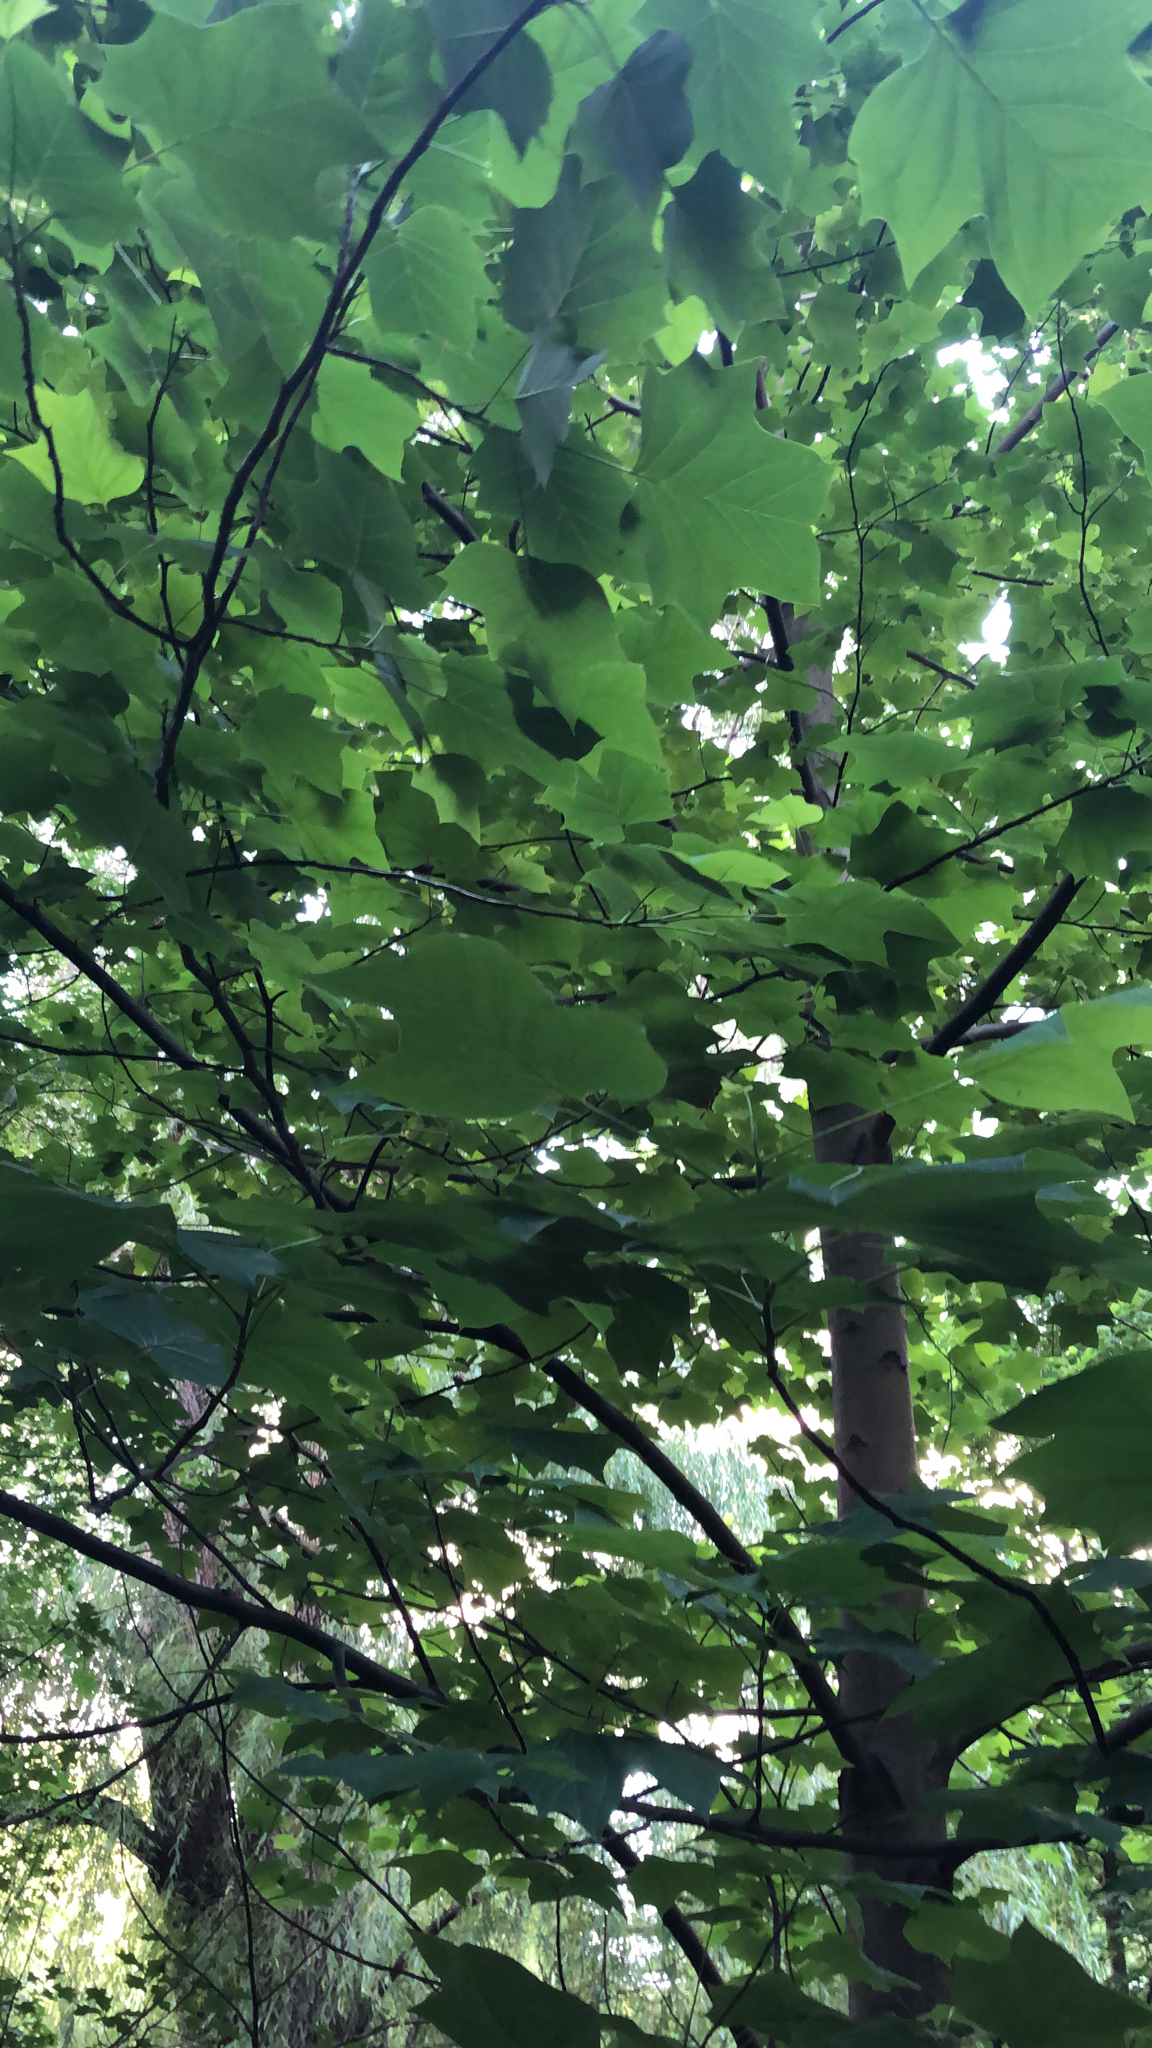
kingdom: Plantae
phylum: Tracheophyta
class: Magnoliopsida
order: Magnoliales
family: Magnoliaceae
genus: Liriodendron
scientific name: Liriodendron tulipifera
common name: Tulip tree
